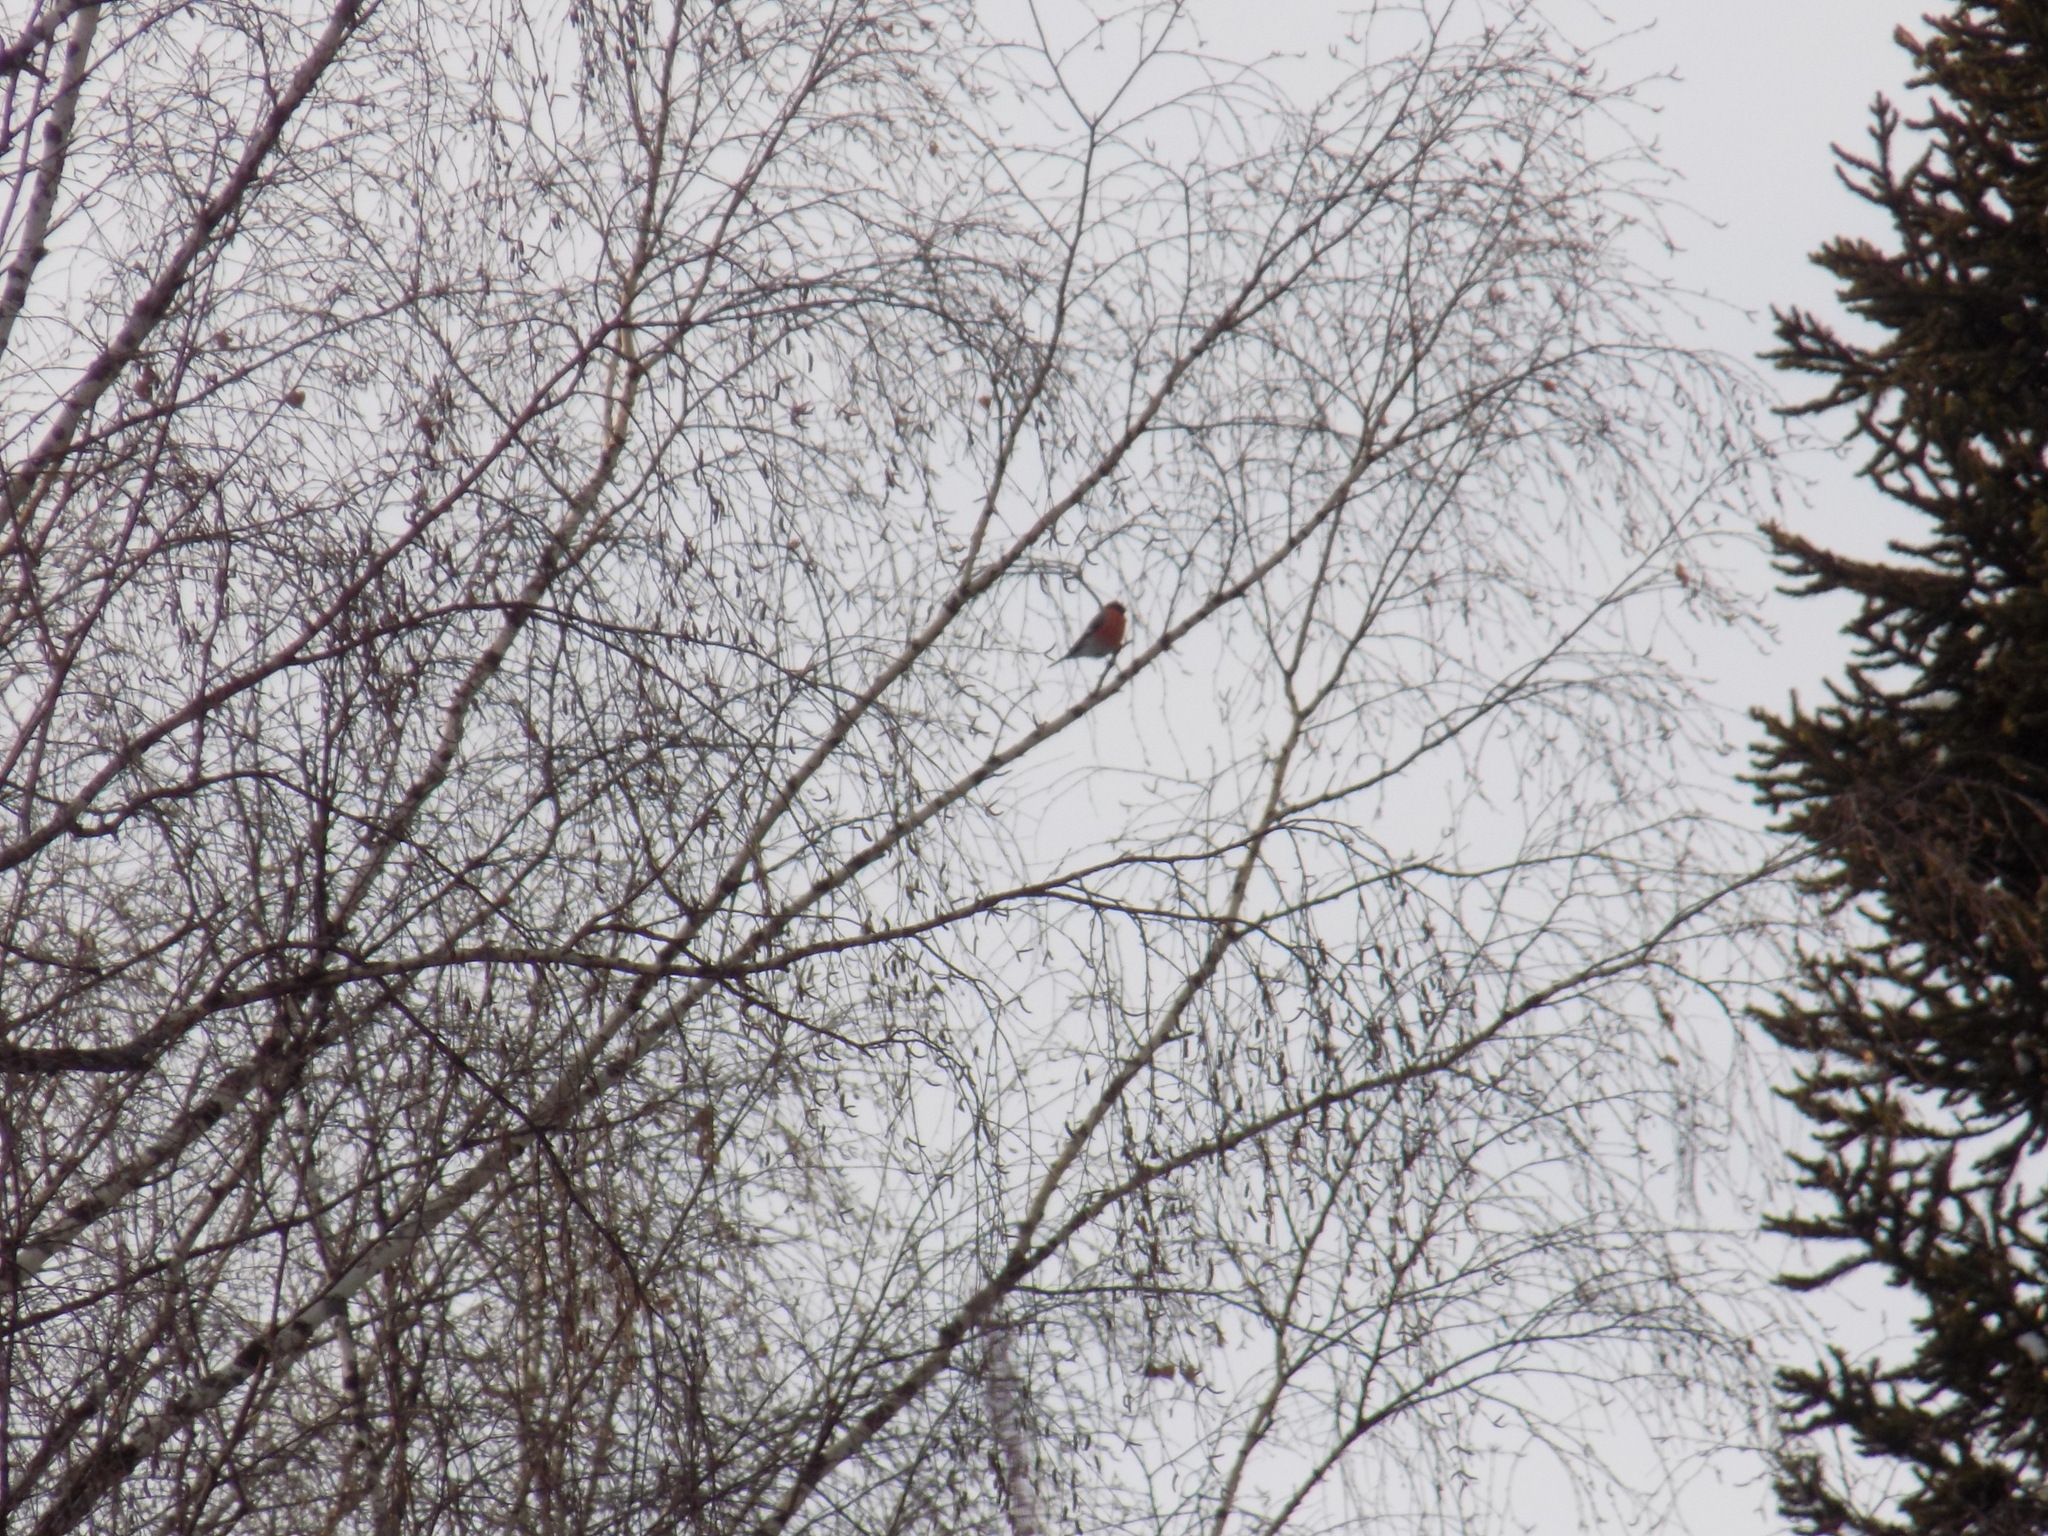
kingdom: Animalia
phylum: Chordata
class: Aves
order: Passeriformes
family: Fringillidae
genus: Pyrrhula
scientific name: Pyrrhula pyrrhula
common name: Eurasian bullfinch
